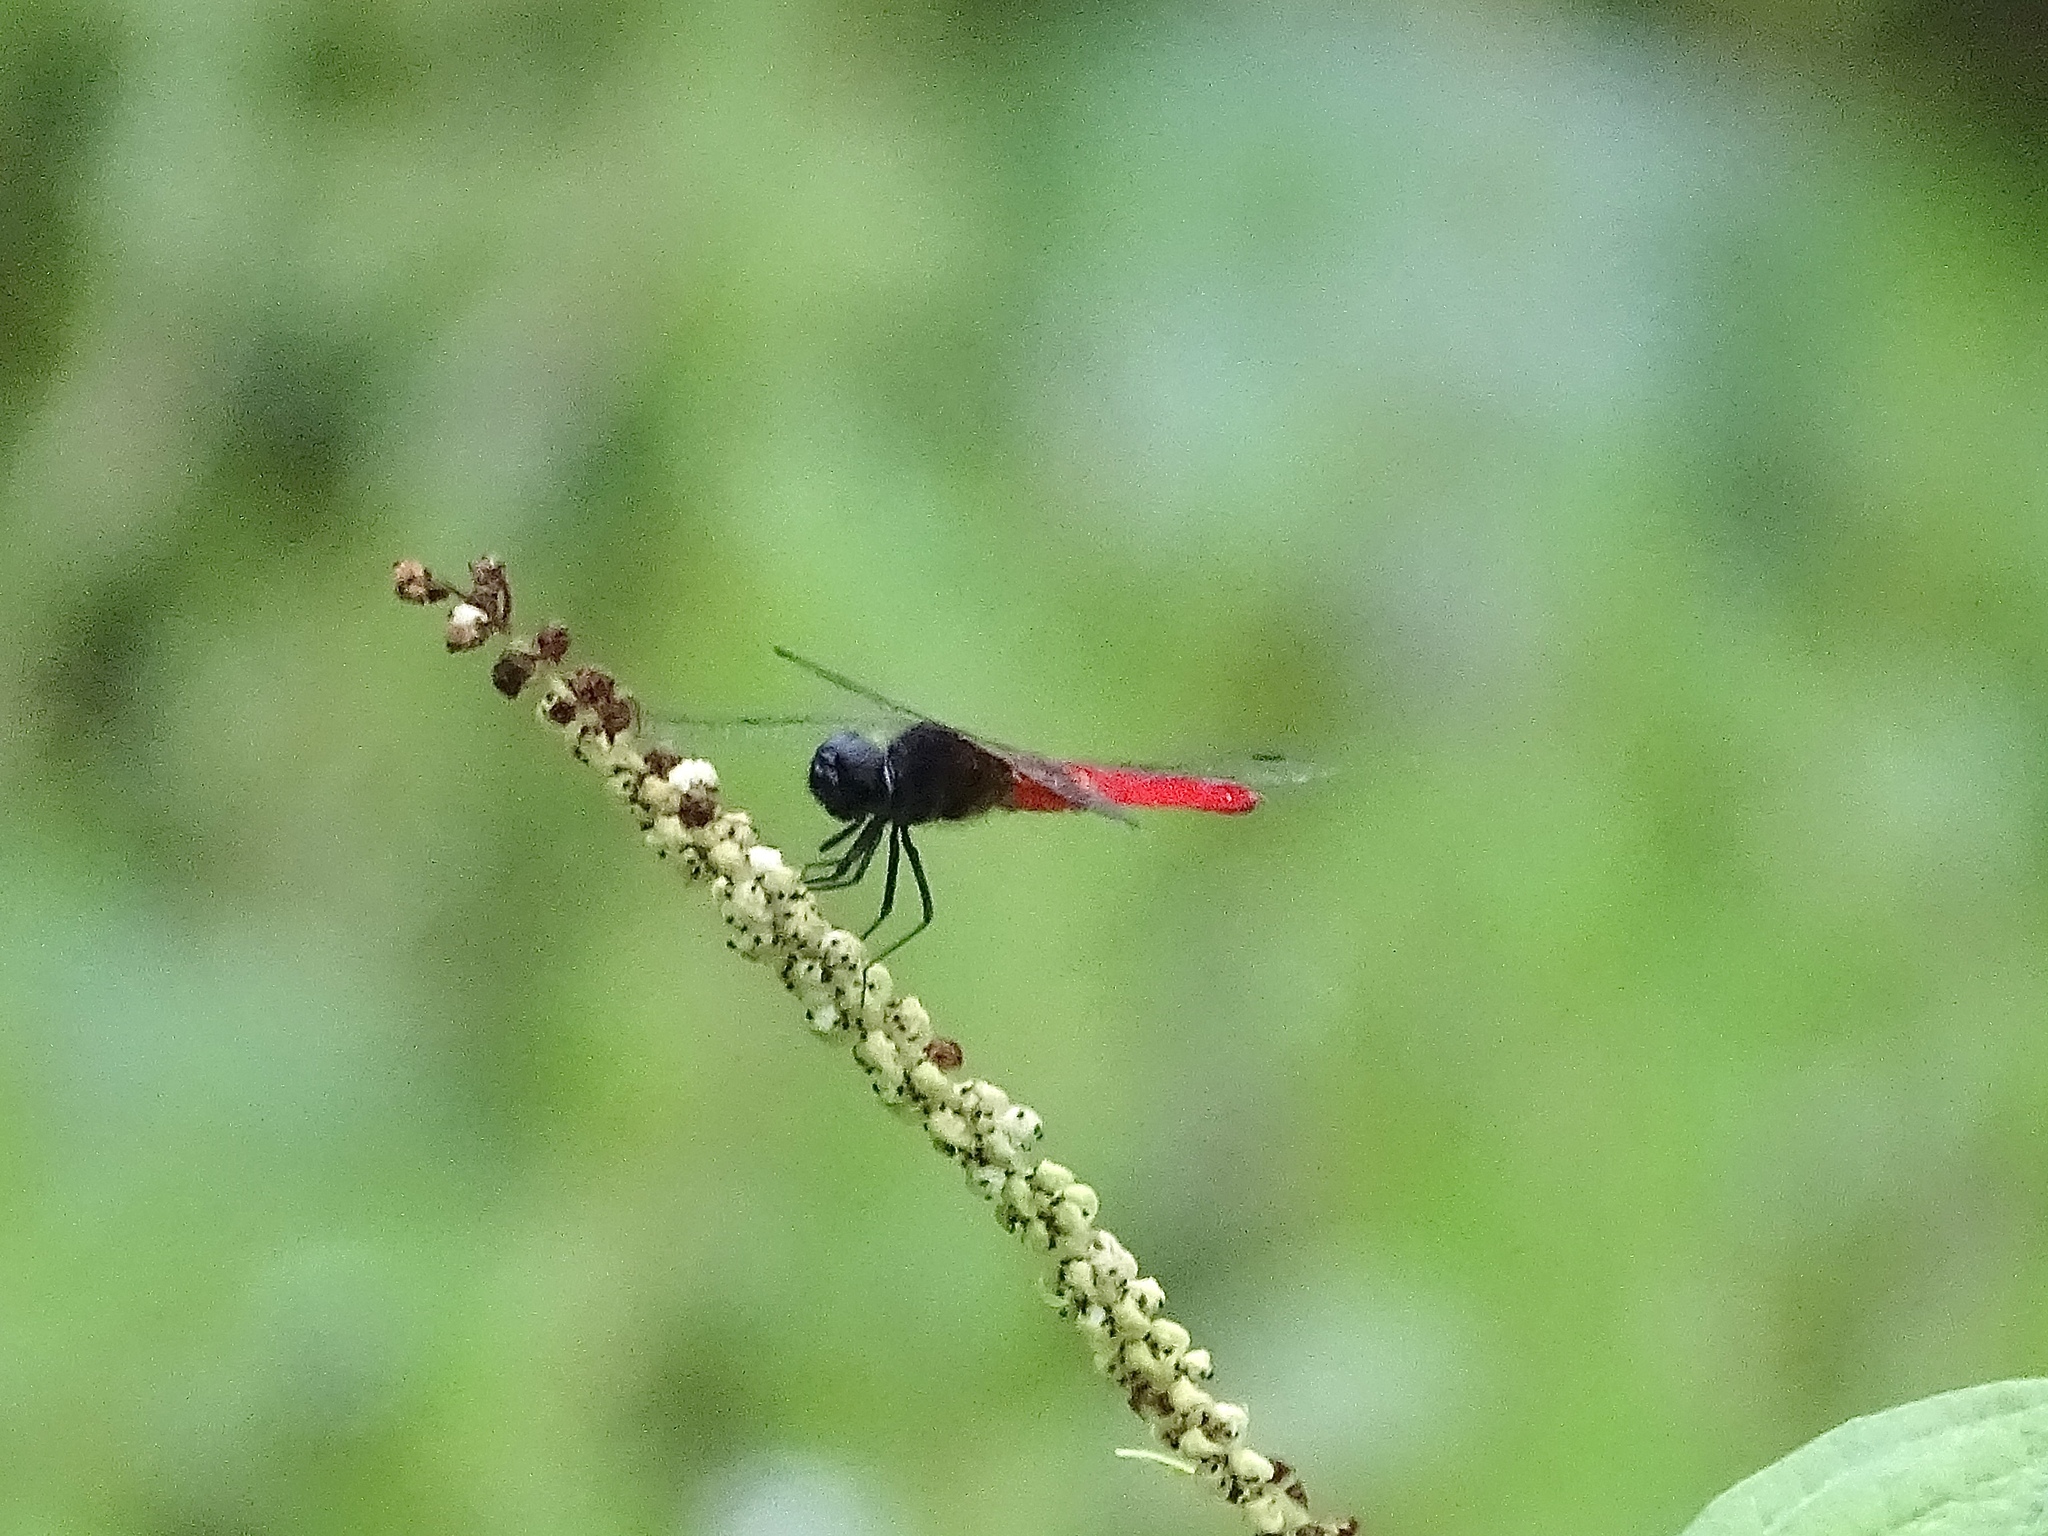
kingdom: Animalia
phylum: Arthropoda
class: Insecta
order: Odonata
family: Libellulidae
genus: Aethriamanta
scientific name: Aethriamanta brevipennis
